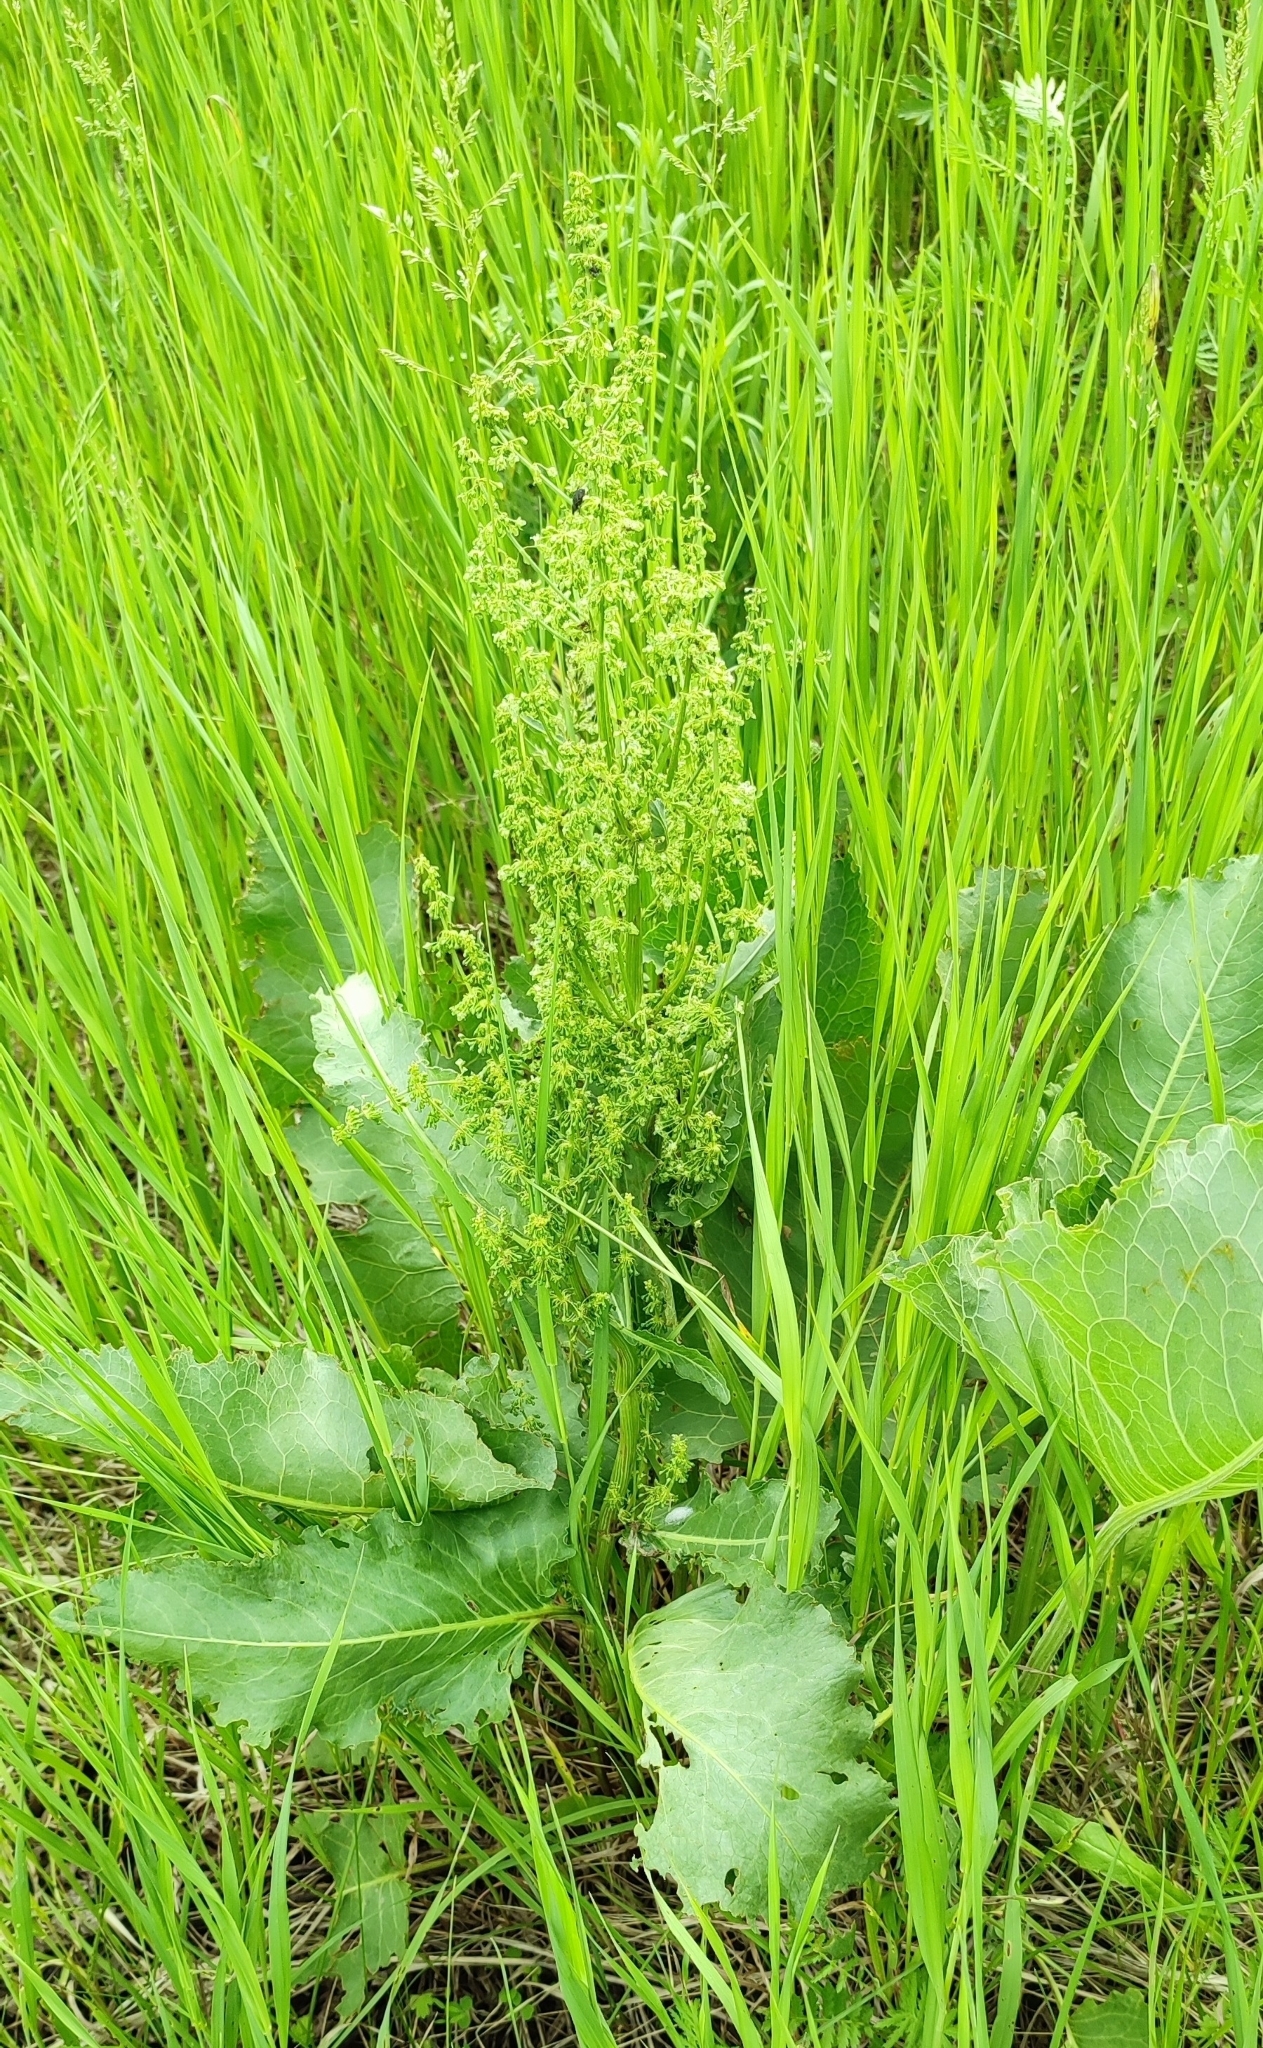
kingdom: Plantae
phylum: Tracheophyta
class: Magnoliopsida
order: Caryophyllales
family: Polygonaceae
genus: Rumex
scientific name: Rumex confertus
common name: Russian dock
